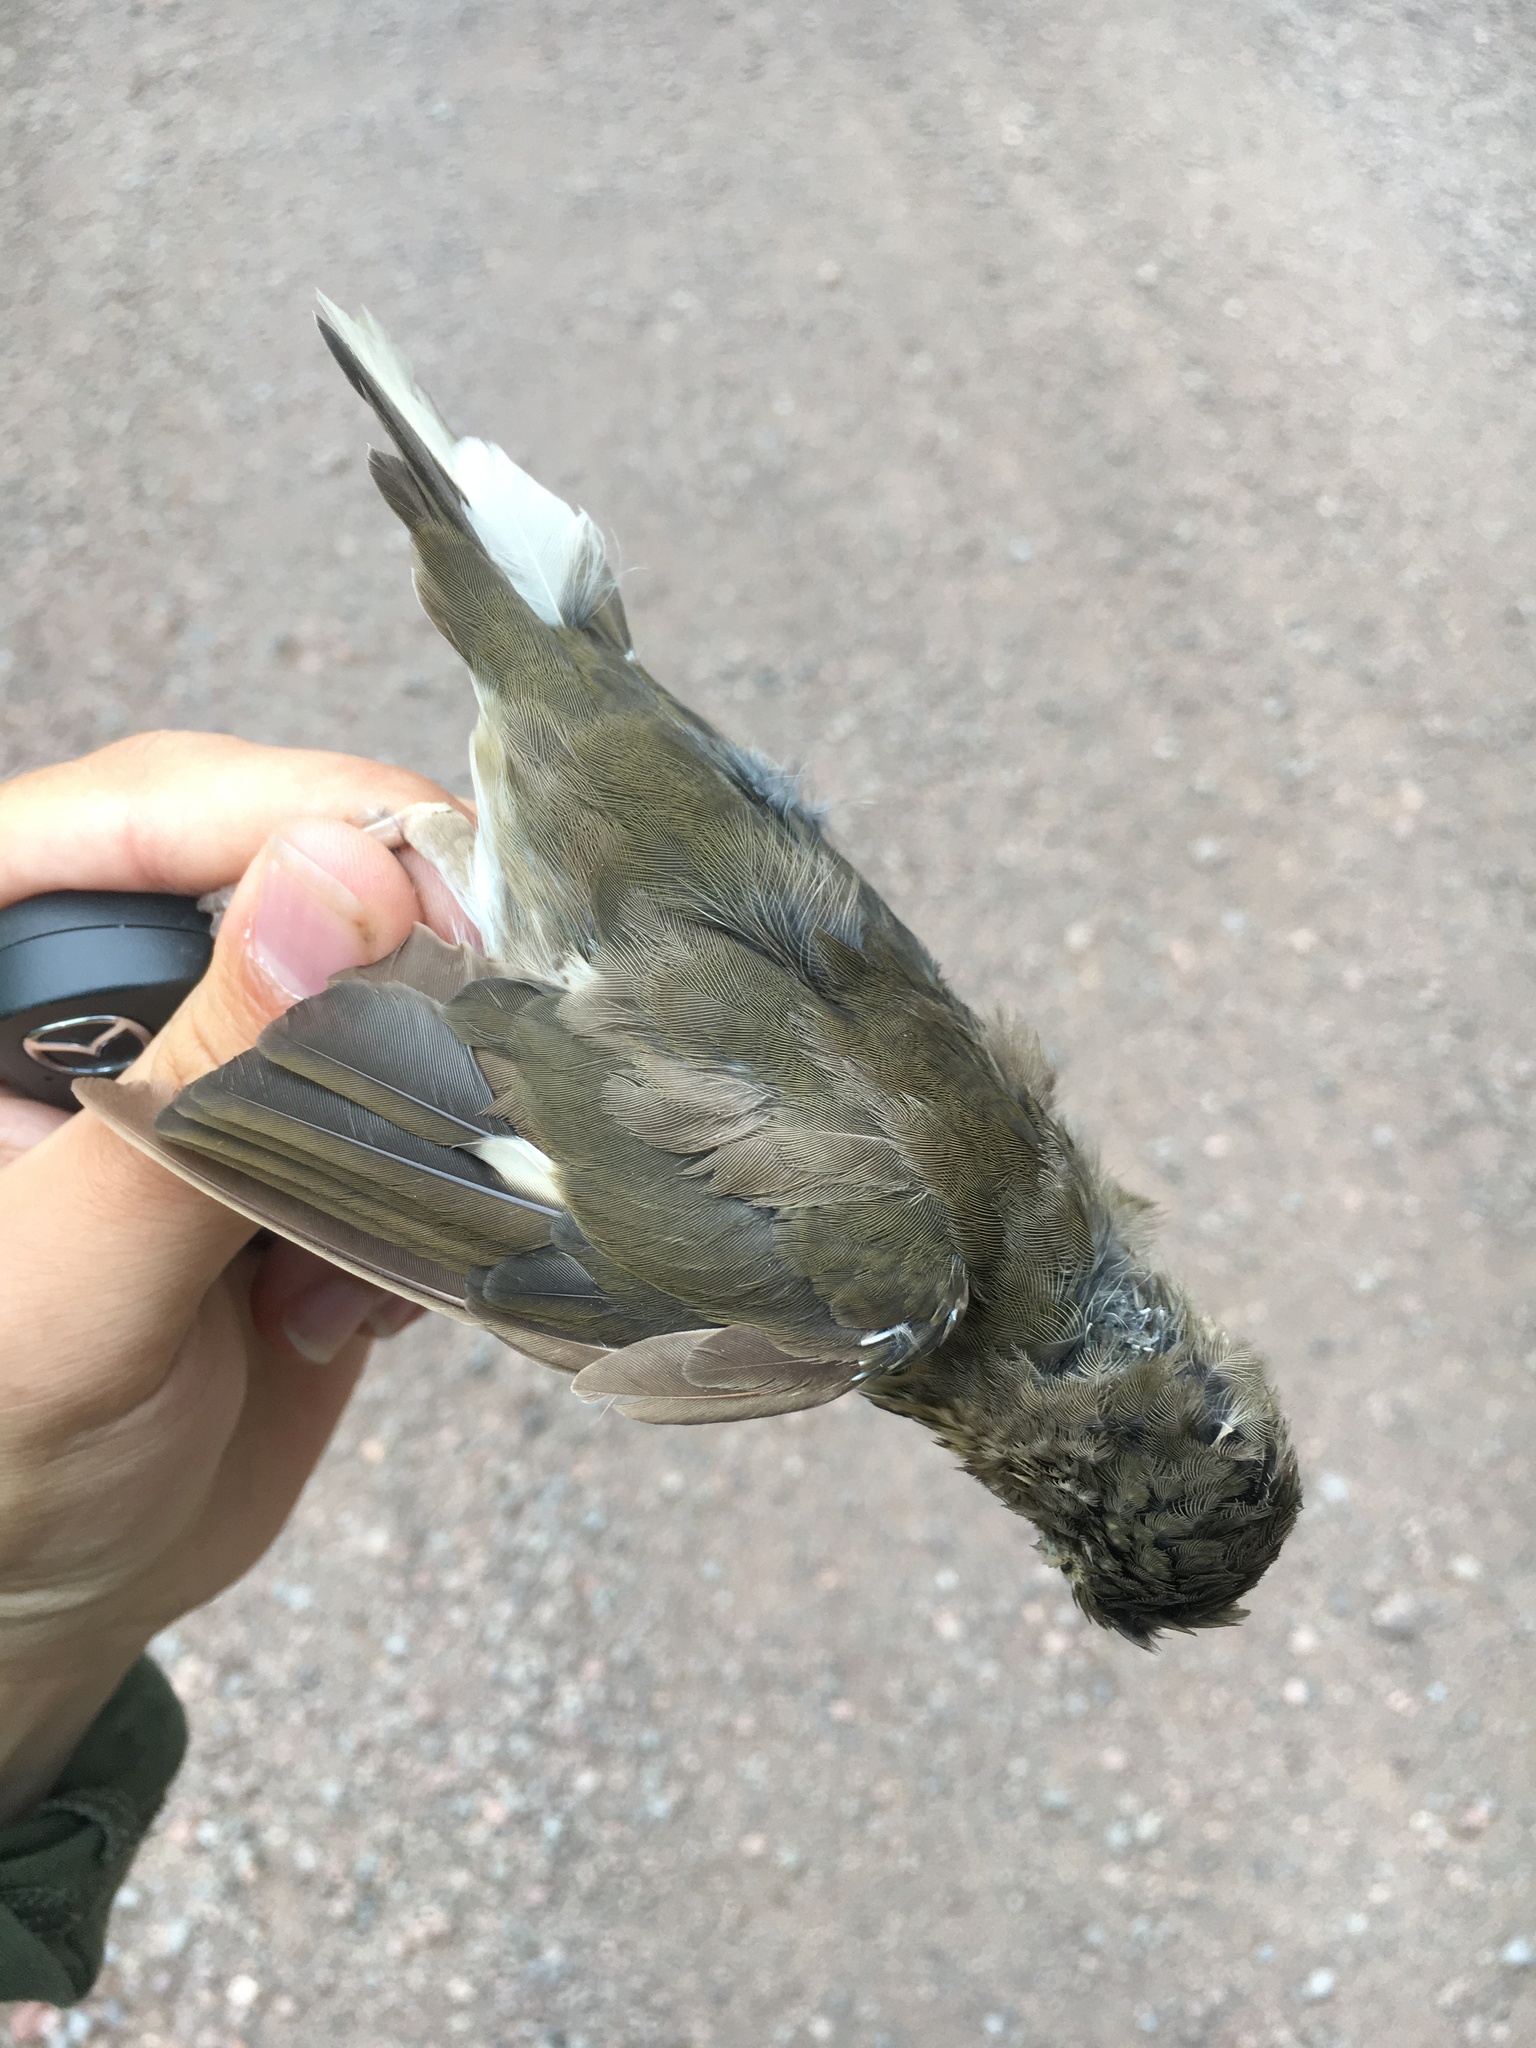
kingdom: Animalia
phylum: Chordata
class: Aves
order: Passeriformes
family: Turdidae
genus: Catharus
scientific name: Catharus ustulatus
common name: Swainson's thrush
